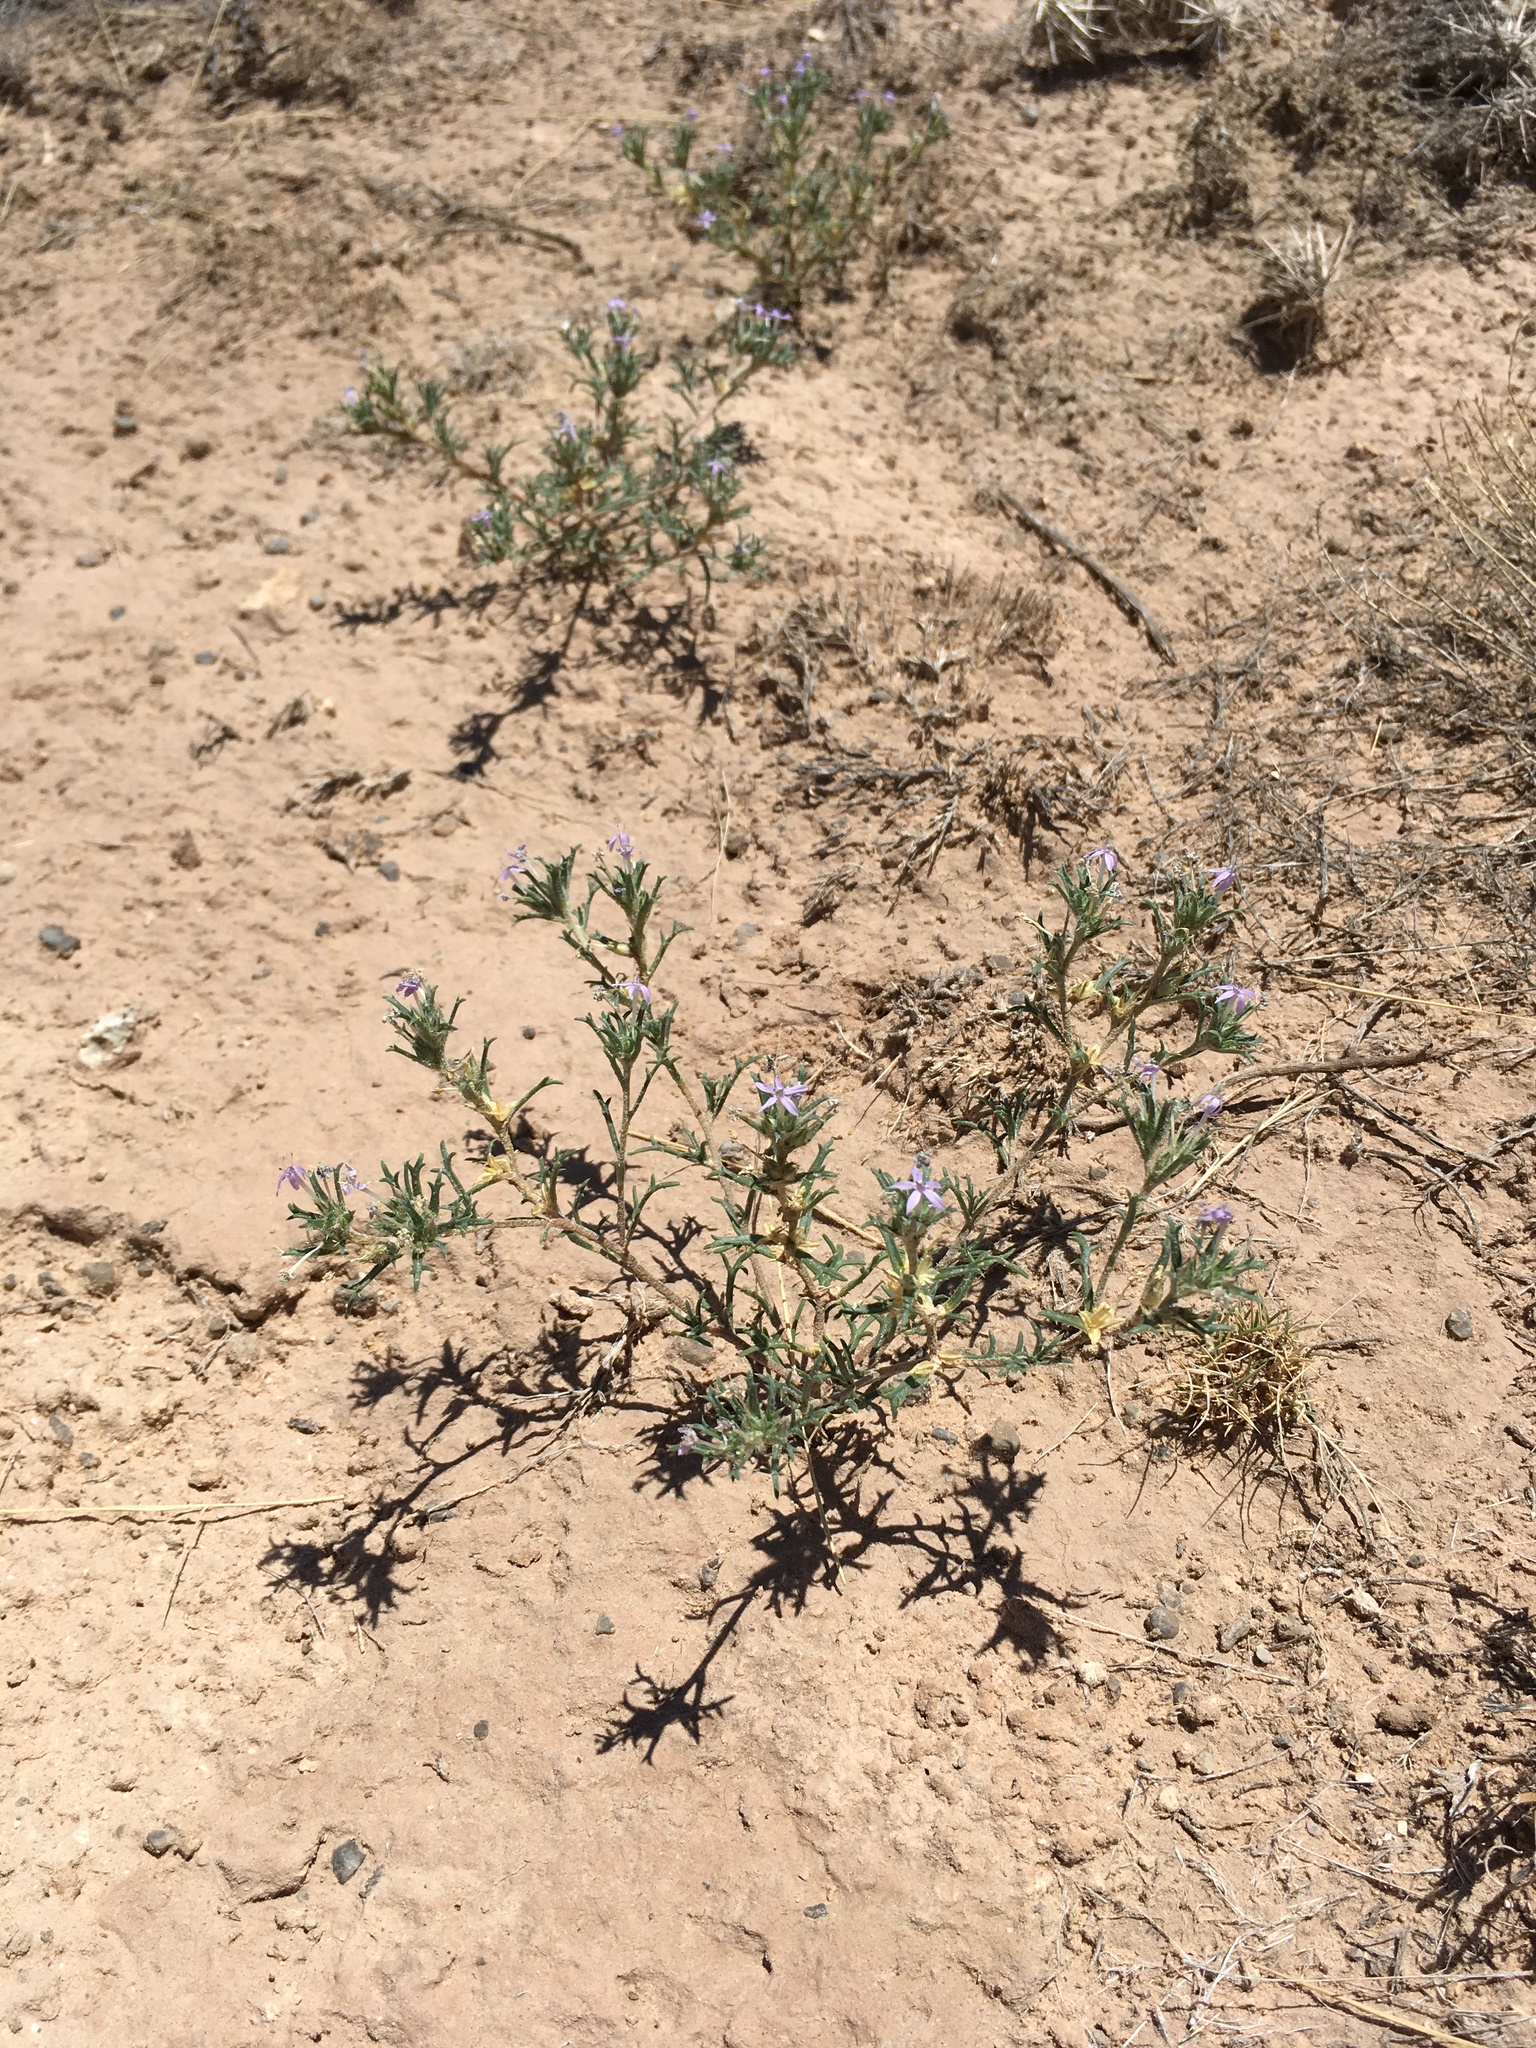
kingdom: Plantae
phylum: Tracheophyta
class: Magnoliopsida
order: Ericales
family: Polemoniaceae
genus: Ipomopsis
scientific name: Ipomopsis pumila
